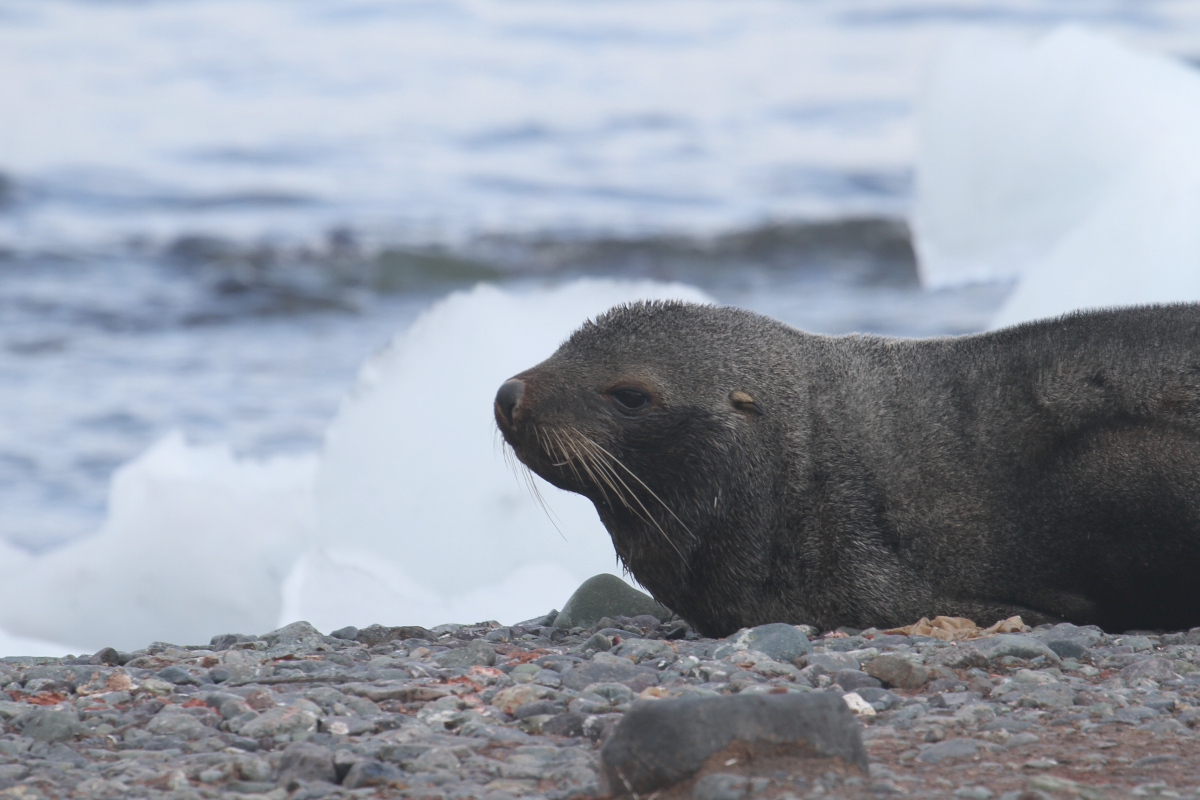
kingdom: Animalia
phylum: Chordata
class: Mammalia
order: Carnivora
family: Otariidae
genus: Arctocephalus
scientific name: Arctocephalus gazella
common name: Antarctic fur seal
